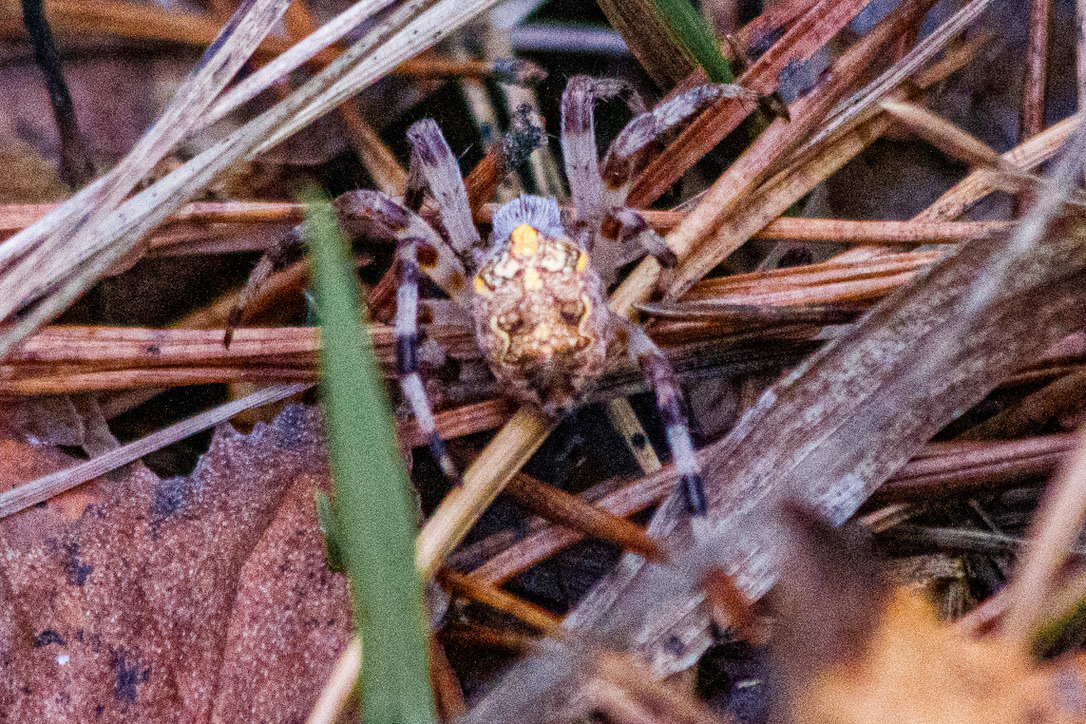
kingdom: Animalia
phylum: Arthropoda
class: Arachnida
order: Araneae
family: Araneidae
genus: Araneus
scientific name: Araneus marmoreus
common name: Marbled orbweaver
